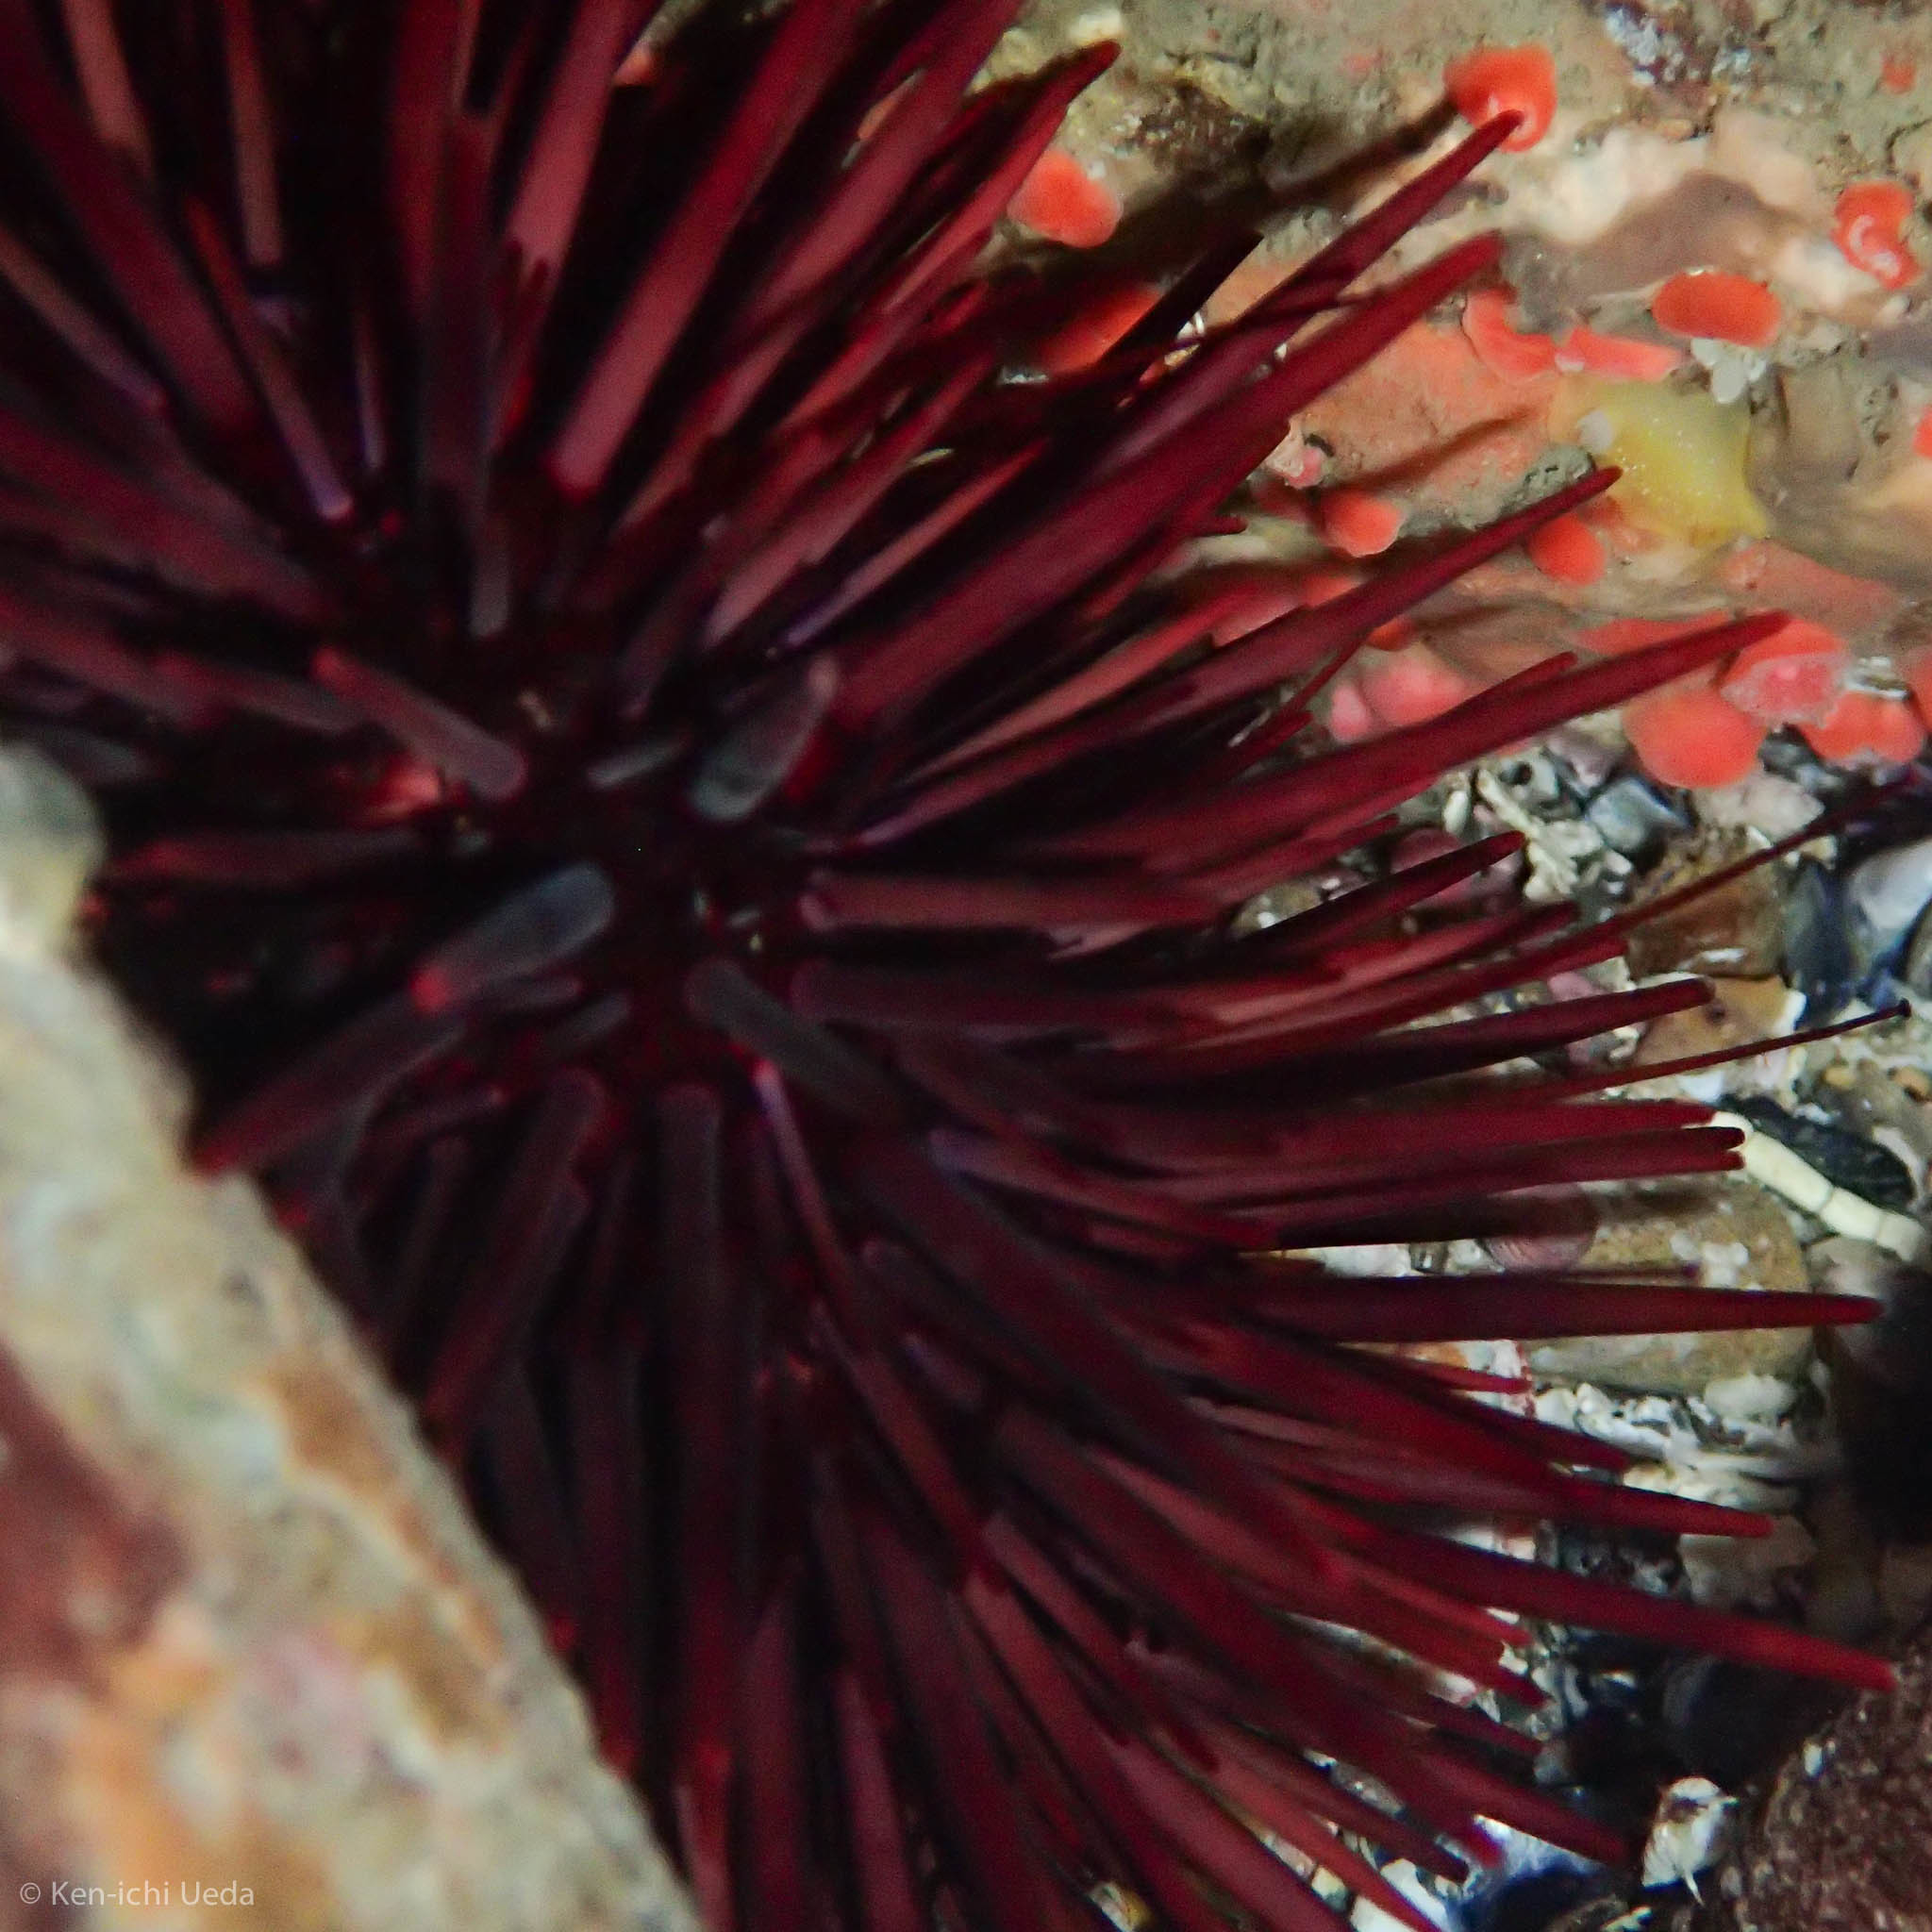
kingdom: Animalia
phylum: Echinodermata
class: Echinoidea
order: Camarodonta
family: Strongylocentrotidae
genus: Mesocentrotus
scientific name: Mesocentrotus franciscanus
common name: Red sea urchin
